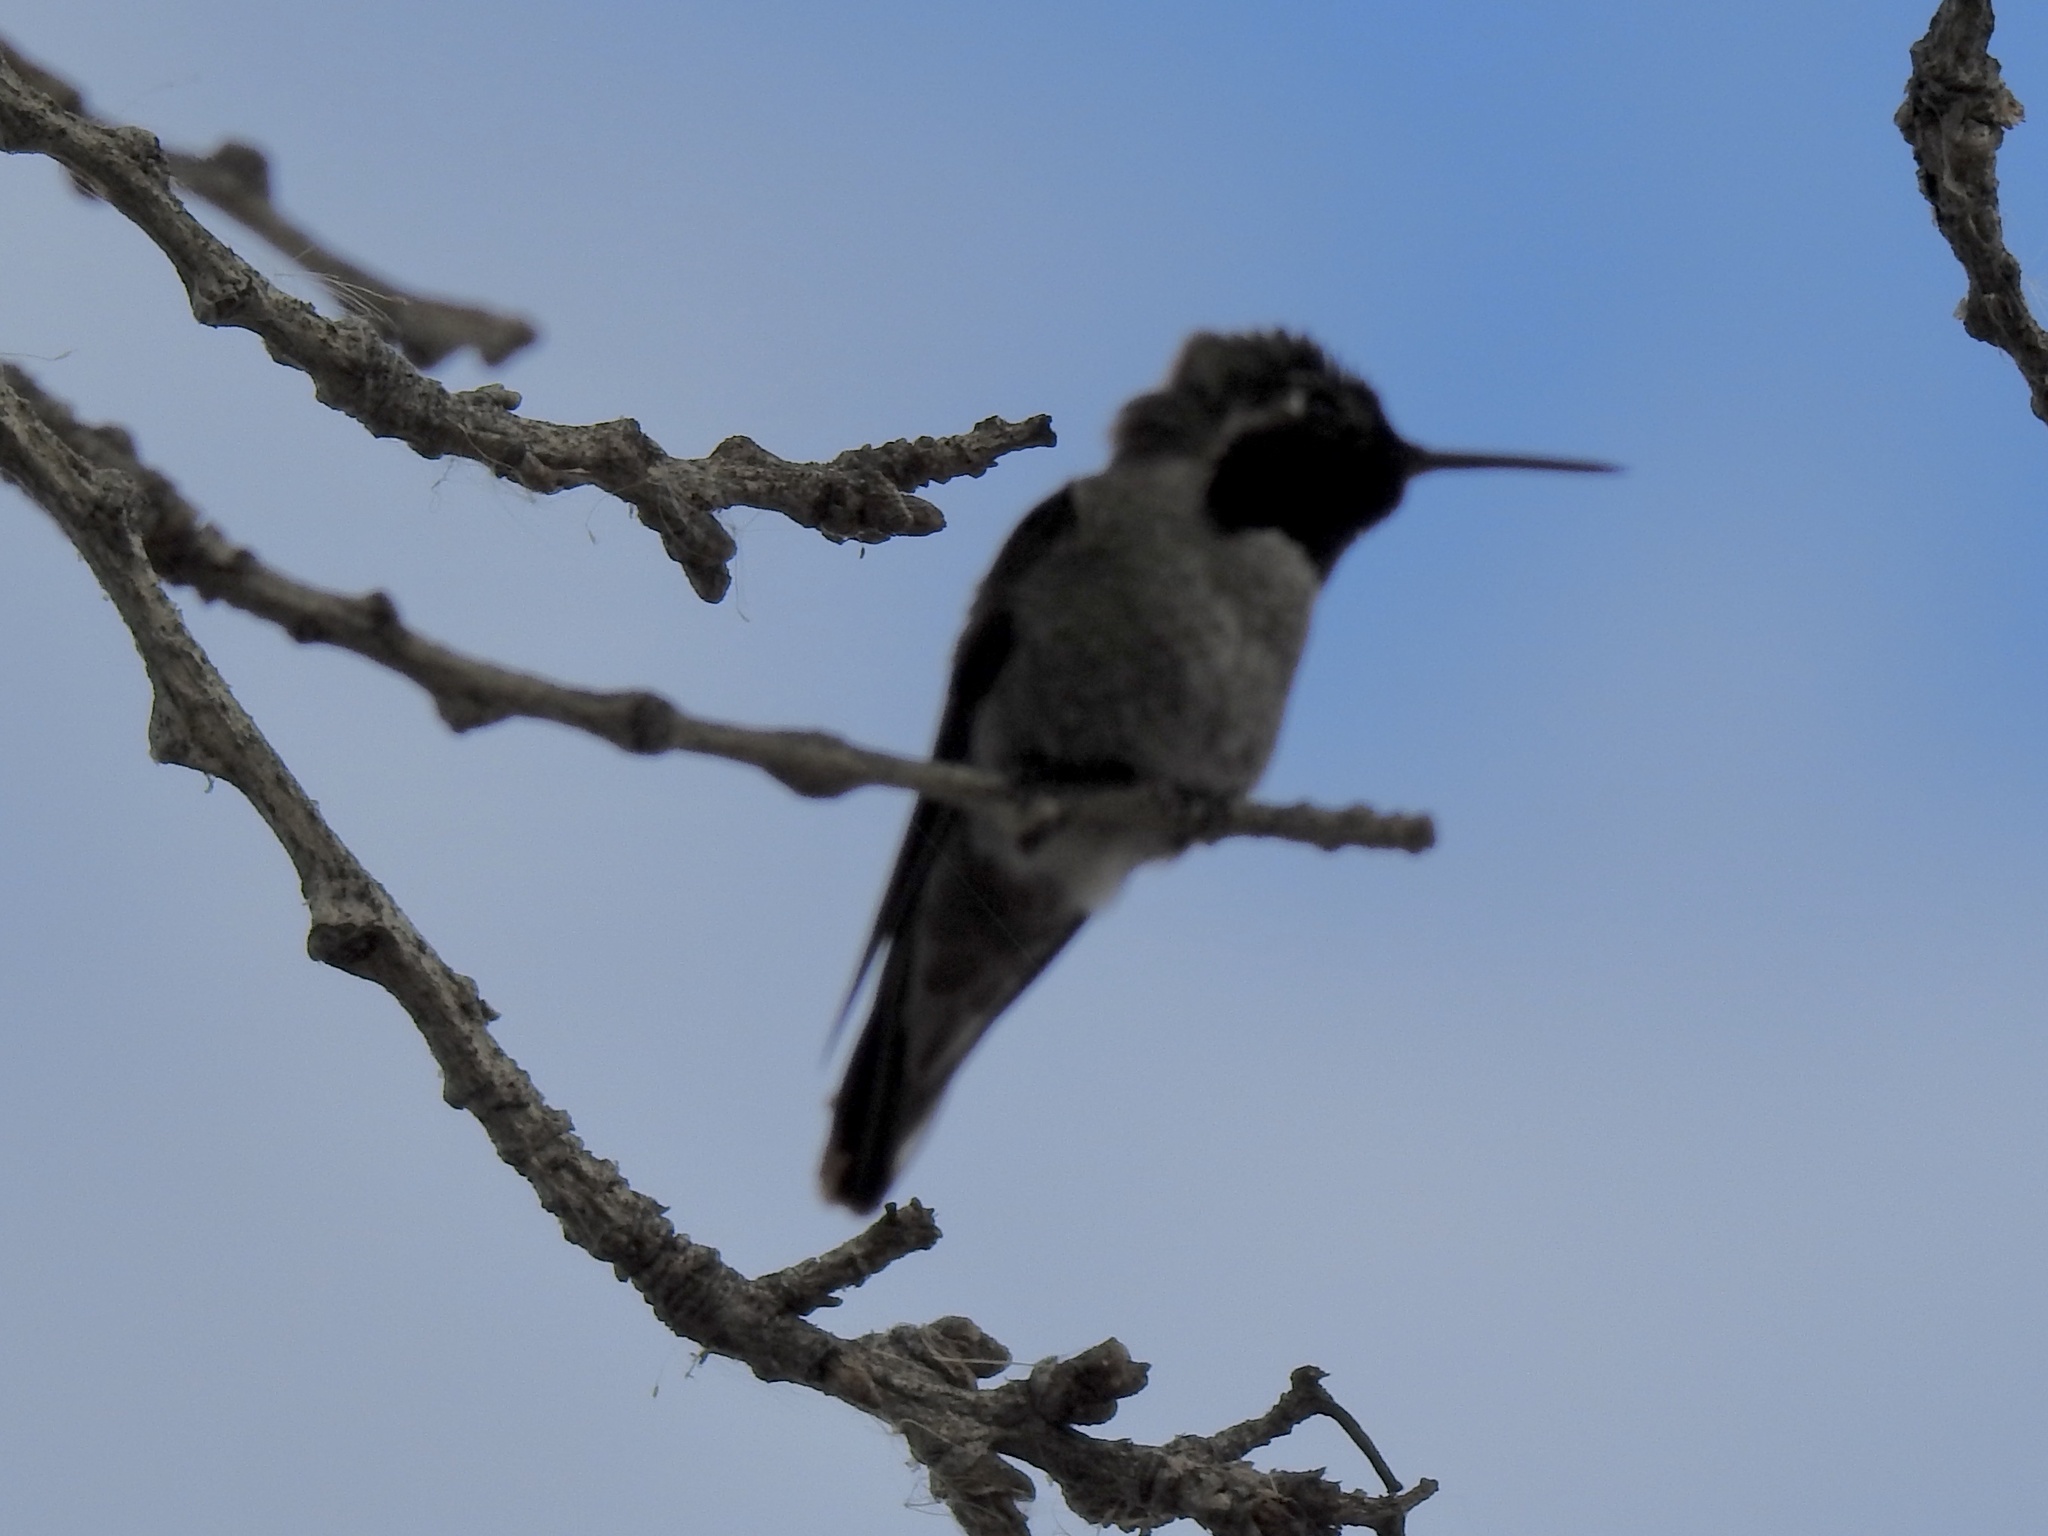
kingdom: Animalia
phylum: Chordata
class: Aves
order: Apodiformes
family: Trochilidae
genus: Calypte
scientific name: Calypte anna
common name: Anna's hummingbird
